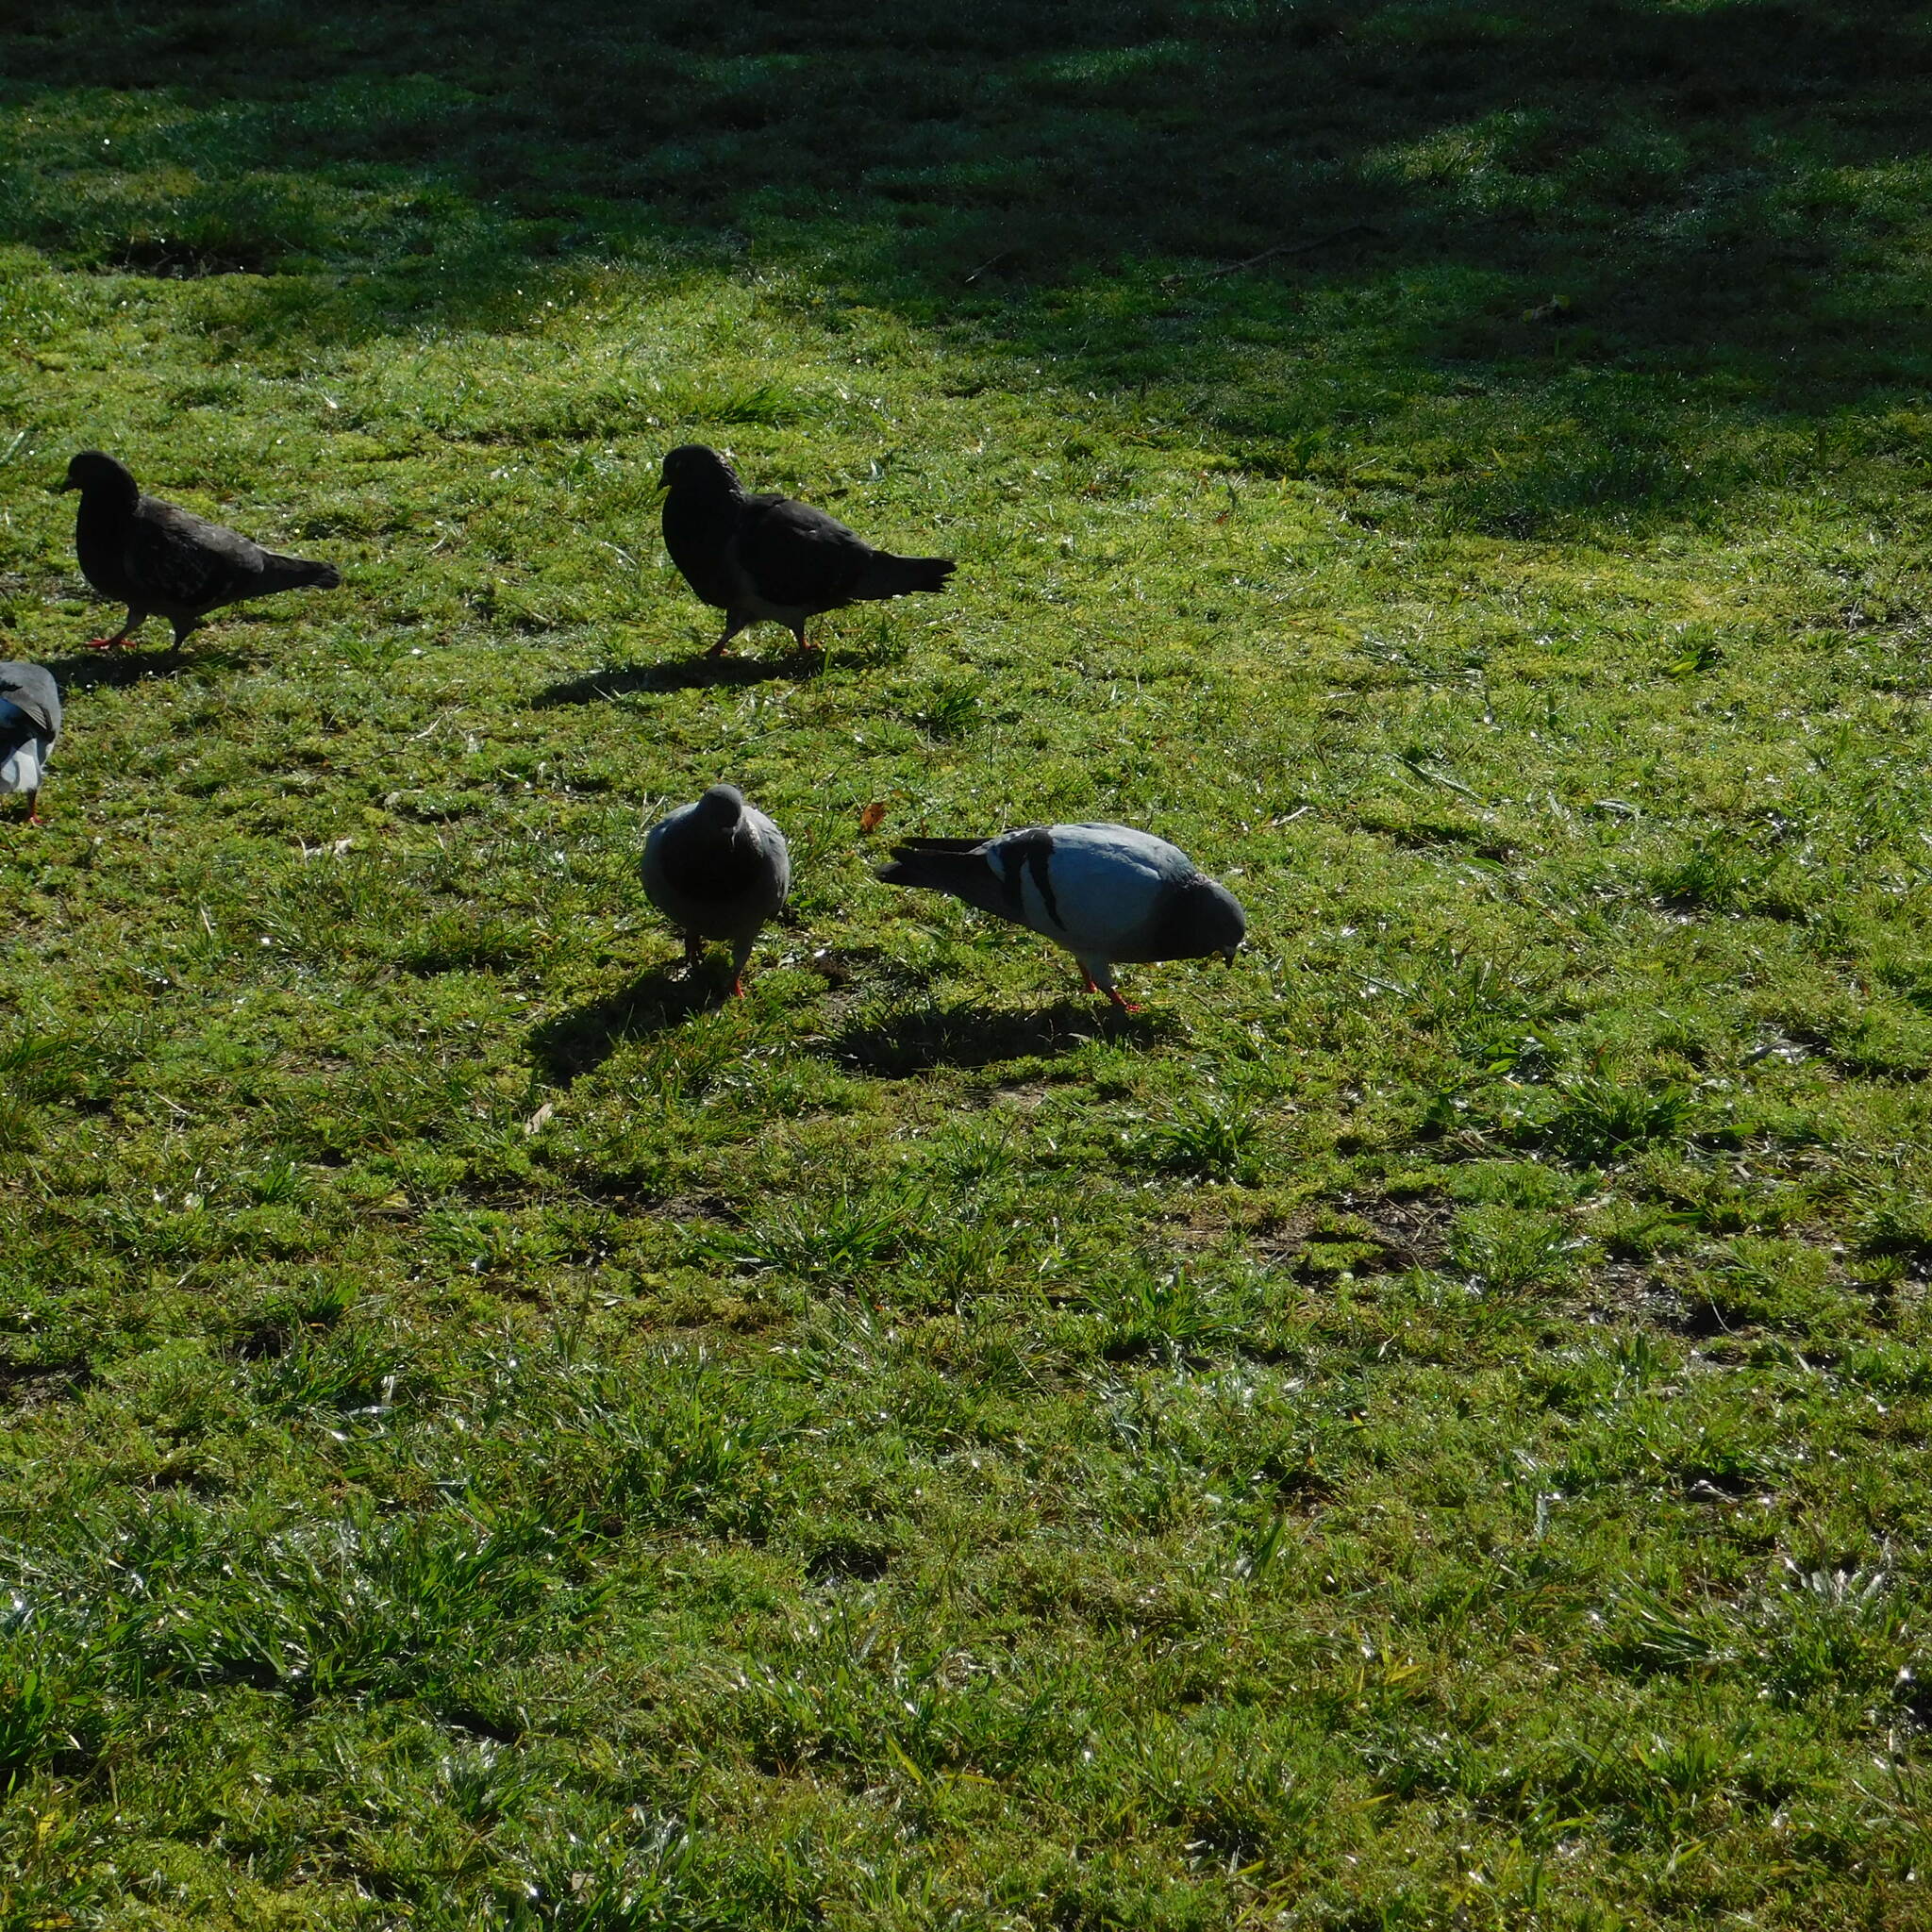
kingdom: Animalia
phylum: Chordata
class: Aves
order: Columbiformes
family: Columbidae
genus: Columba
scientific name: Columba livia
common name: Rock pigeon
